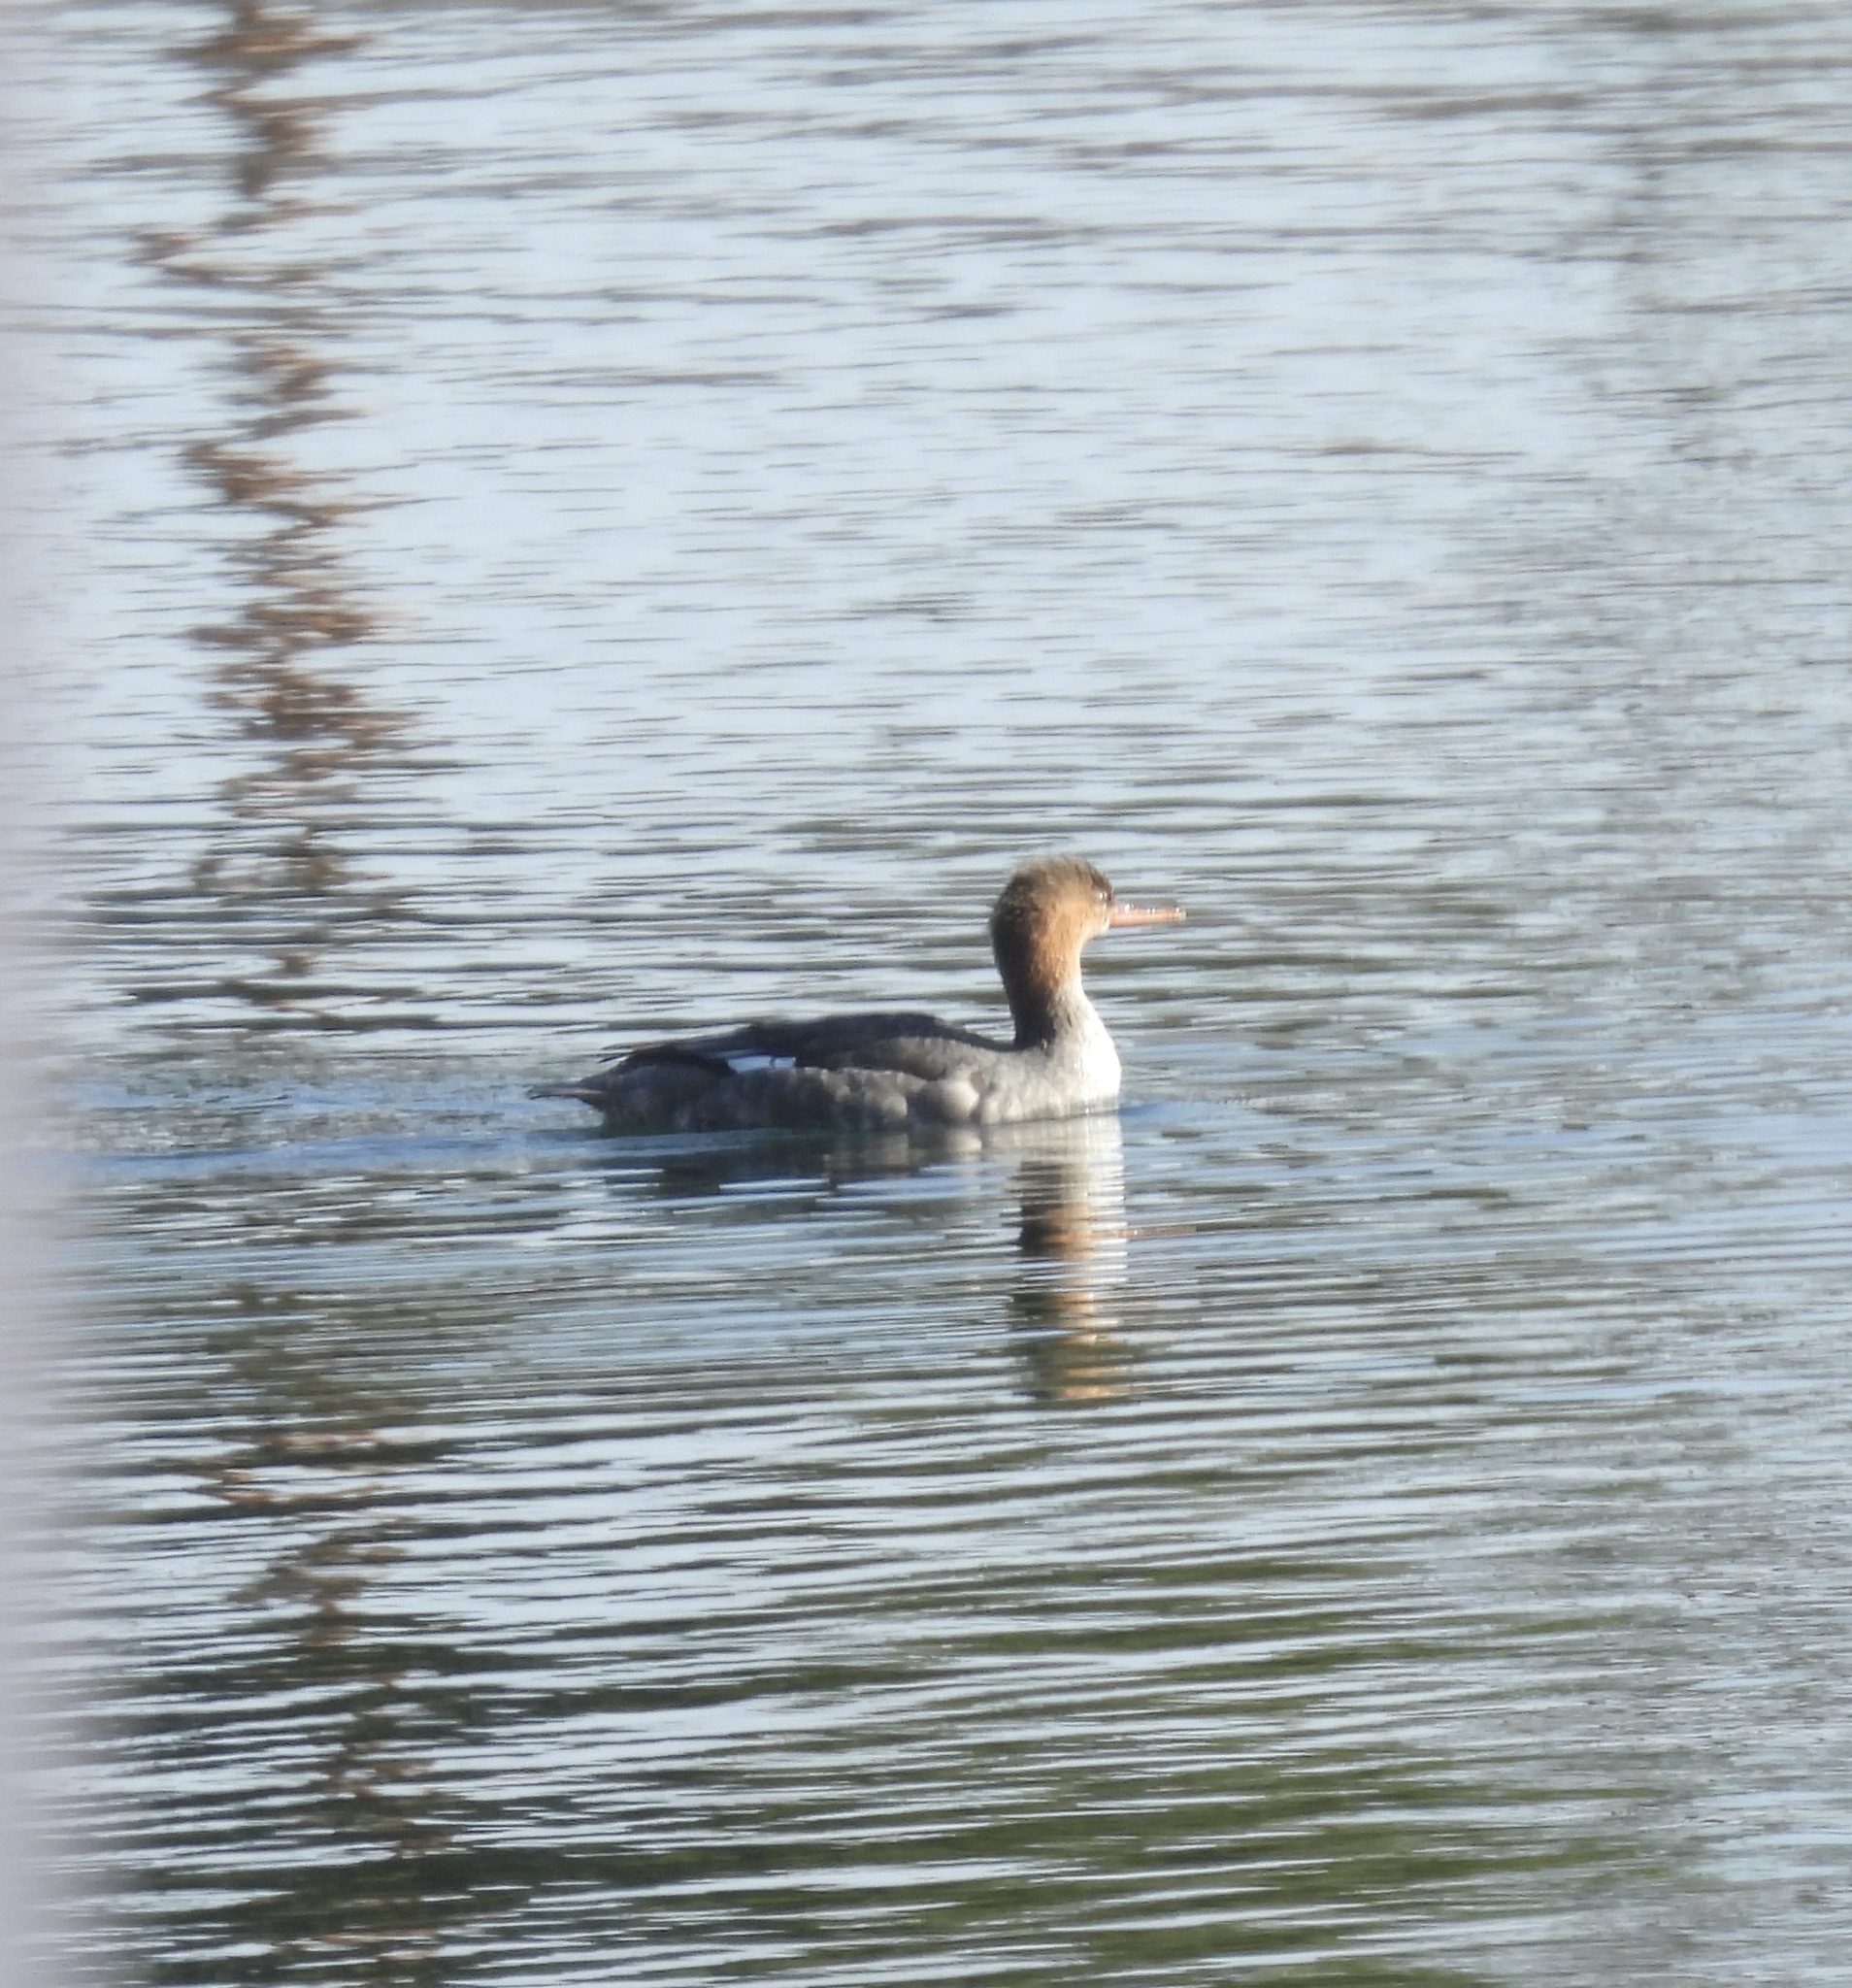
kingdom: Animalia
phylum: Chordata
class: Aves
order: Anseriformes
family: Anatidae
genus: Mergus
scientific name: Mergus serrator
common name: Red-breasted merganser
